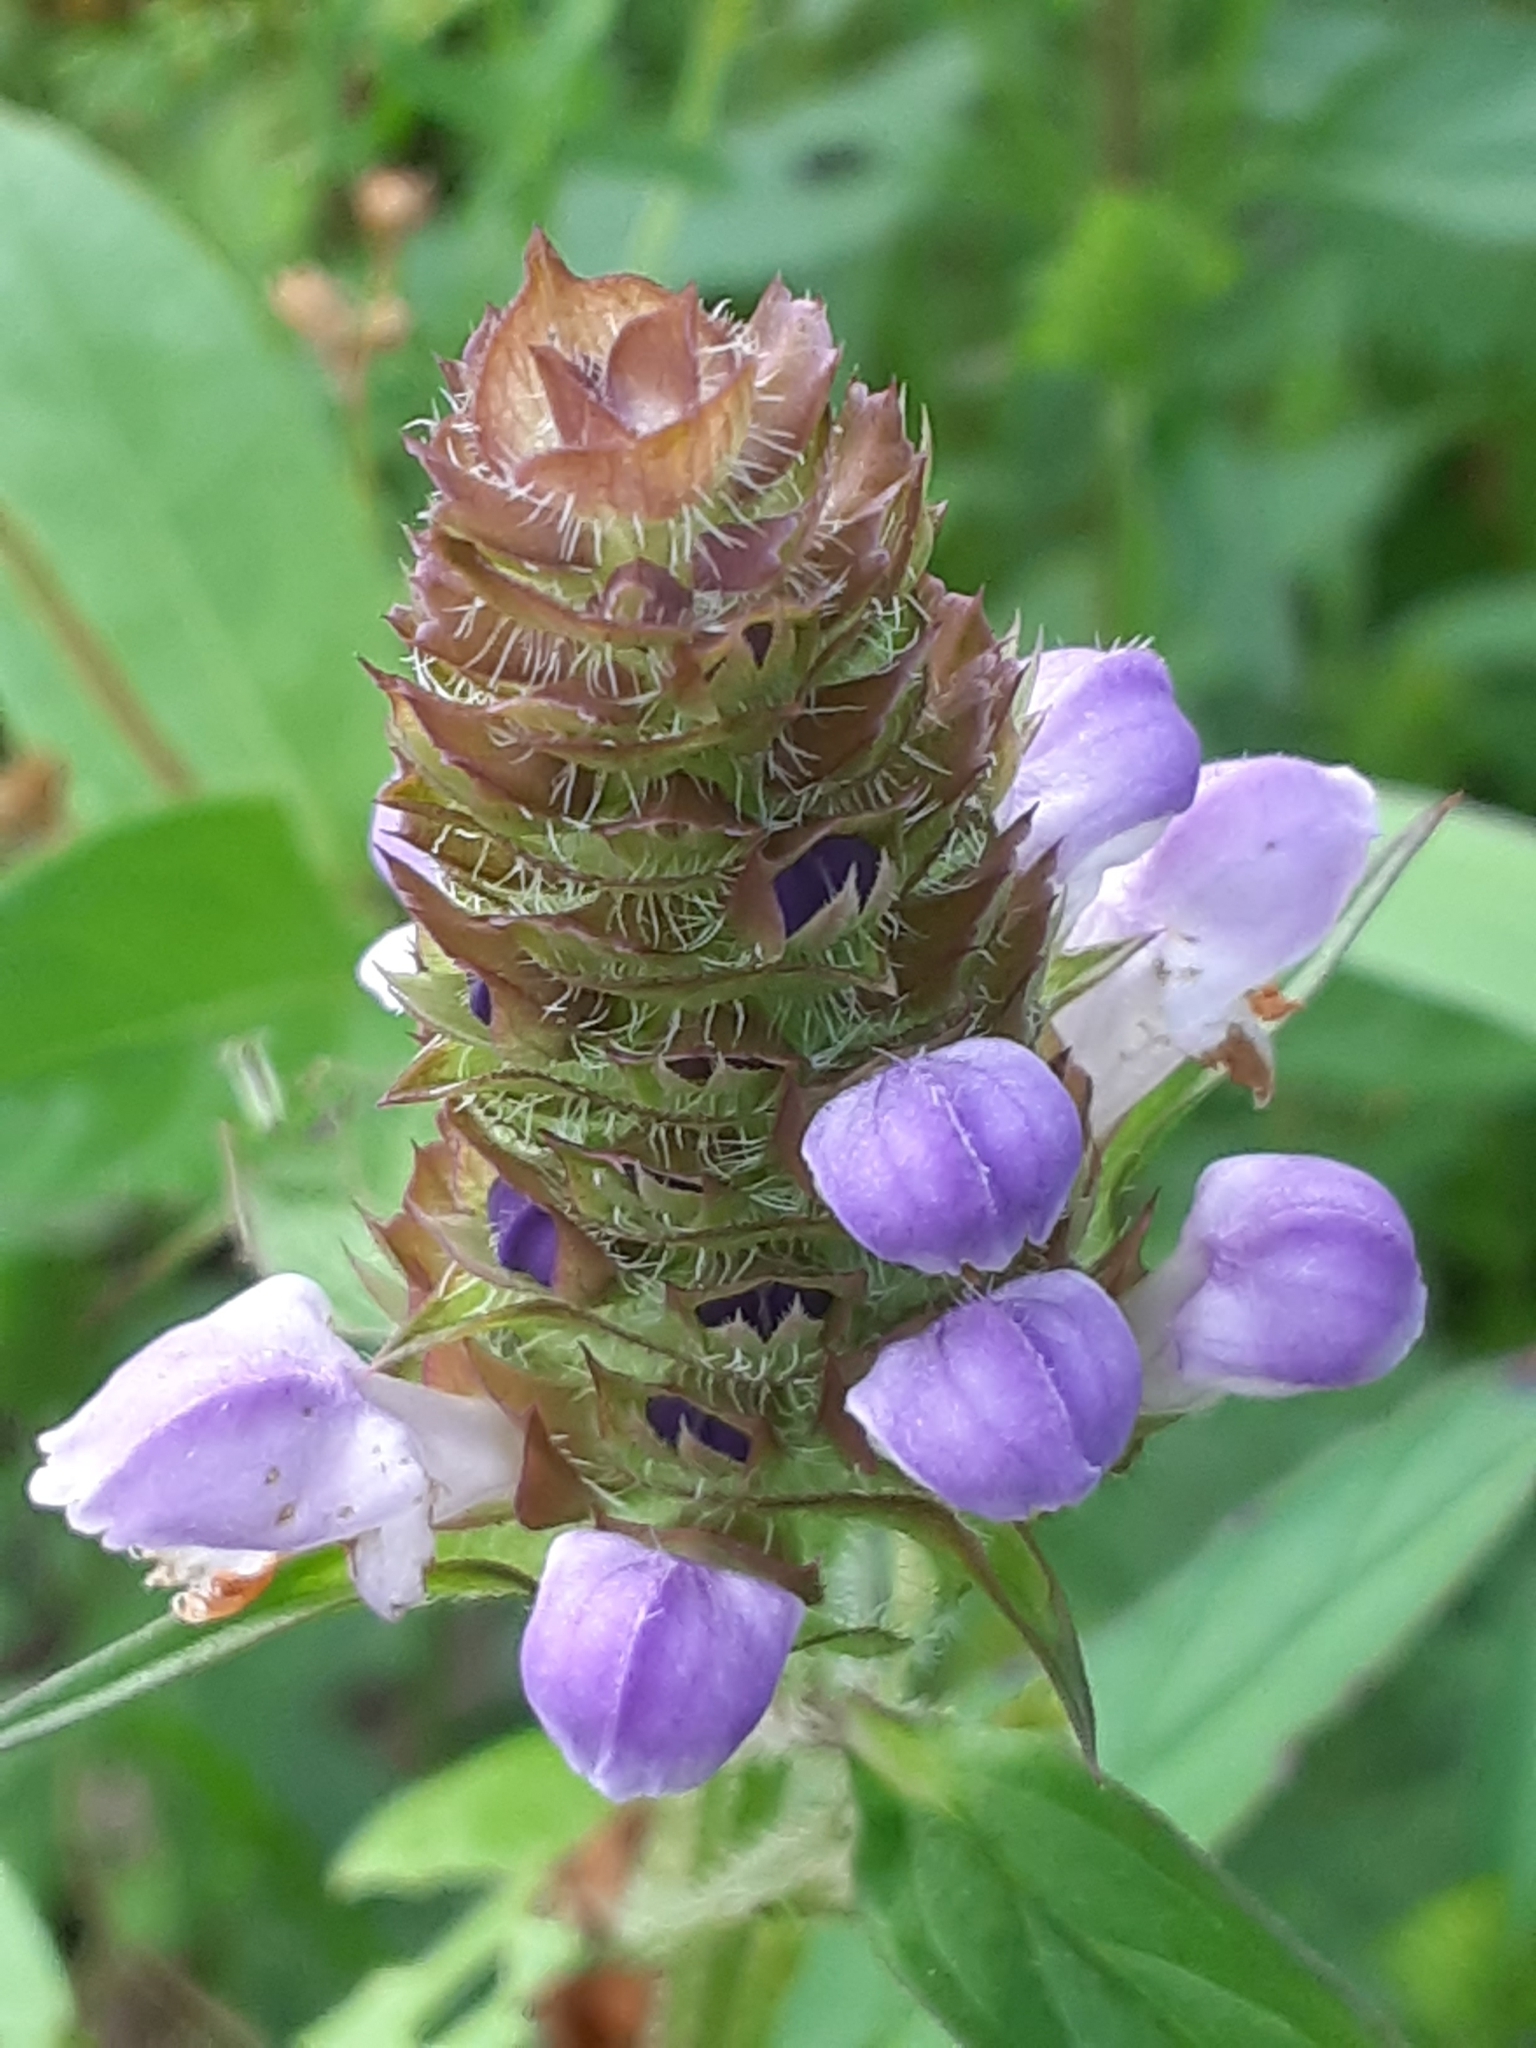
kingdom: Plantae
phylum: Tracheophyta
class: Magnoliopsida
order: Lamiales
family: Lamiaceae
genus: Prunella
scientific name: Prunella vulgaris
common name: Heal-all
